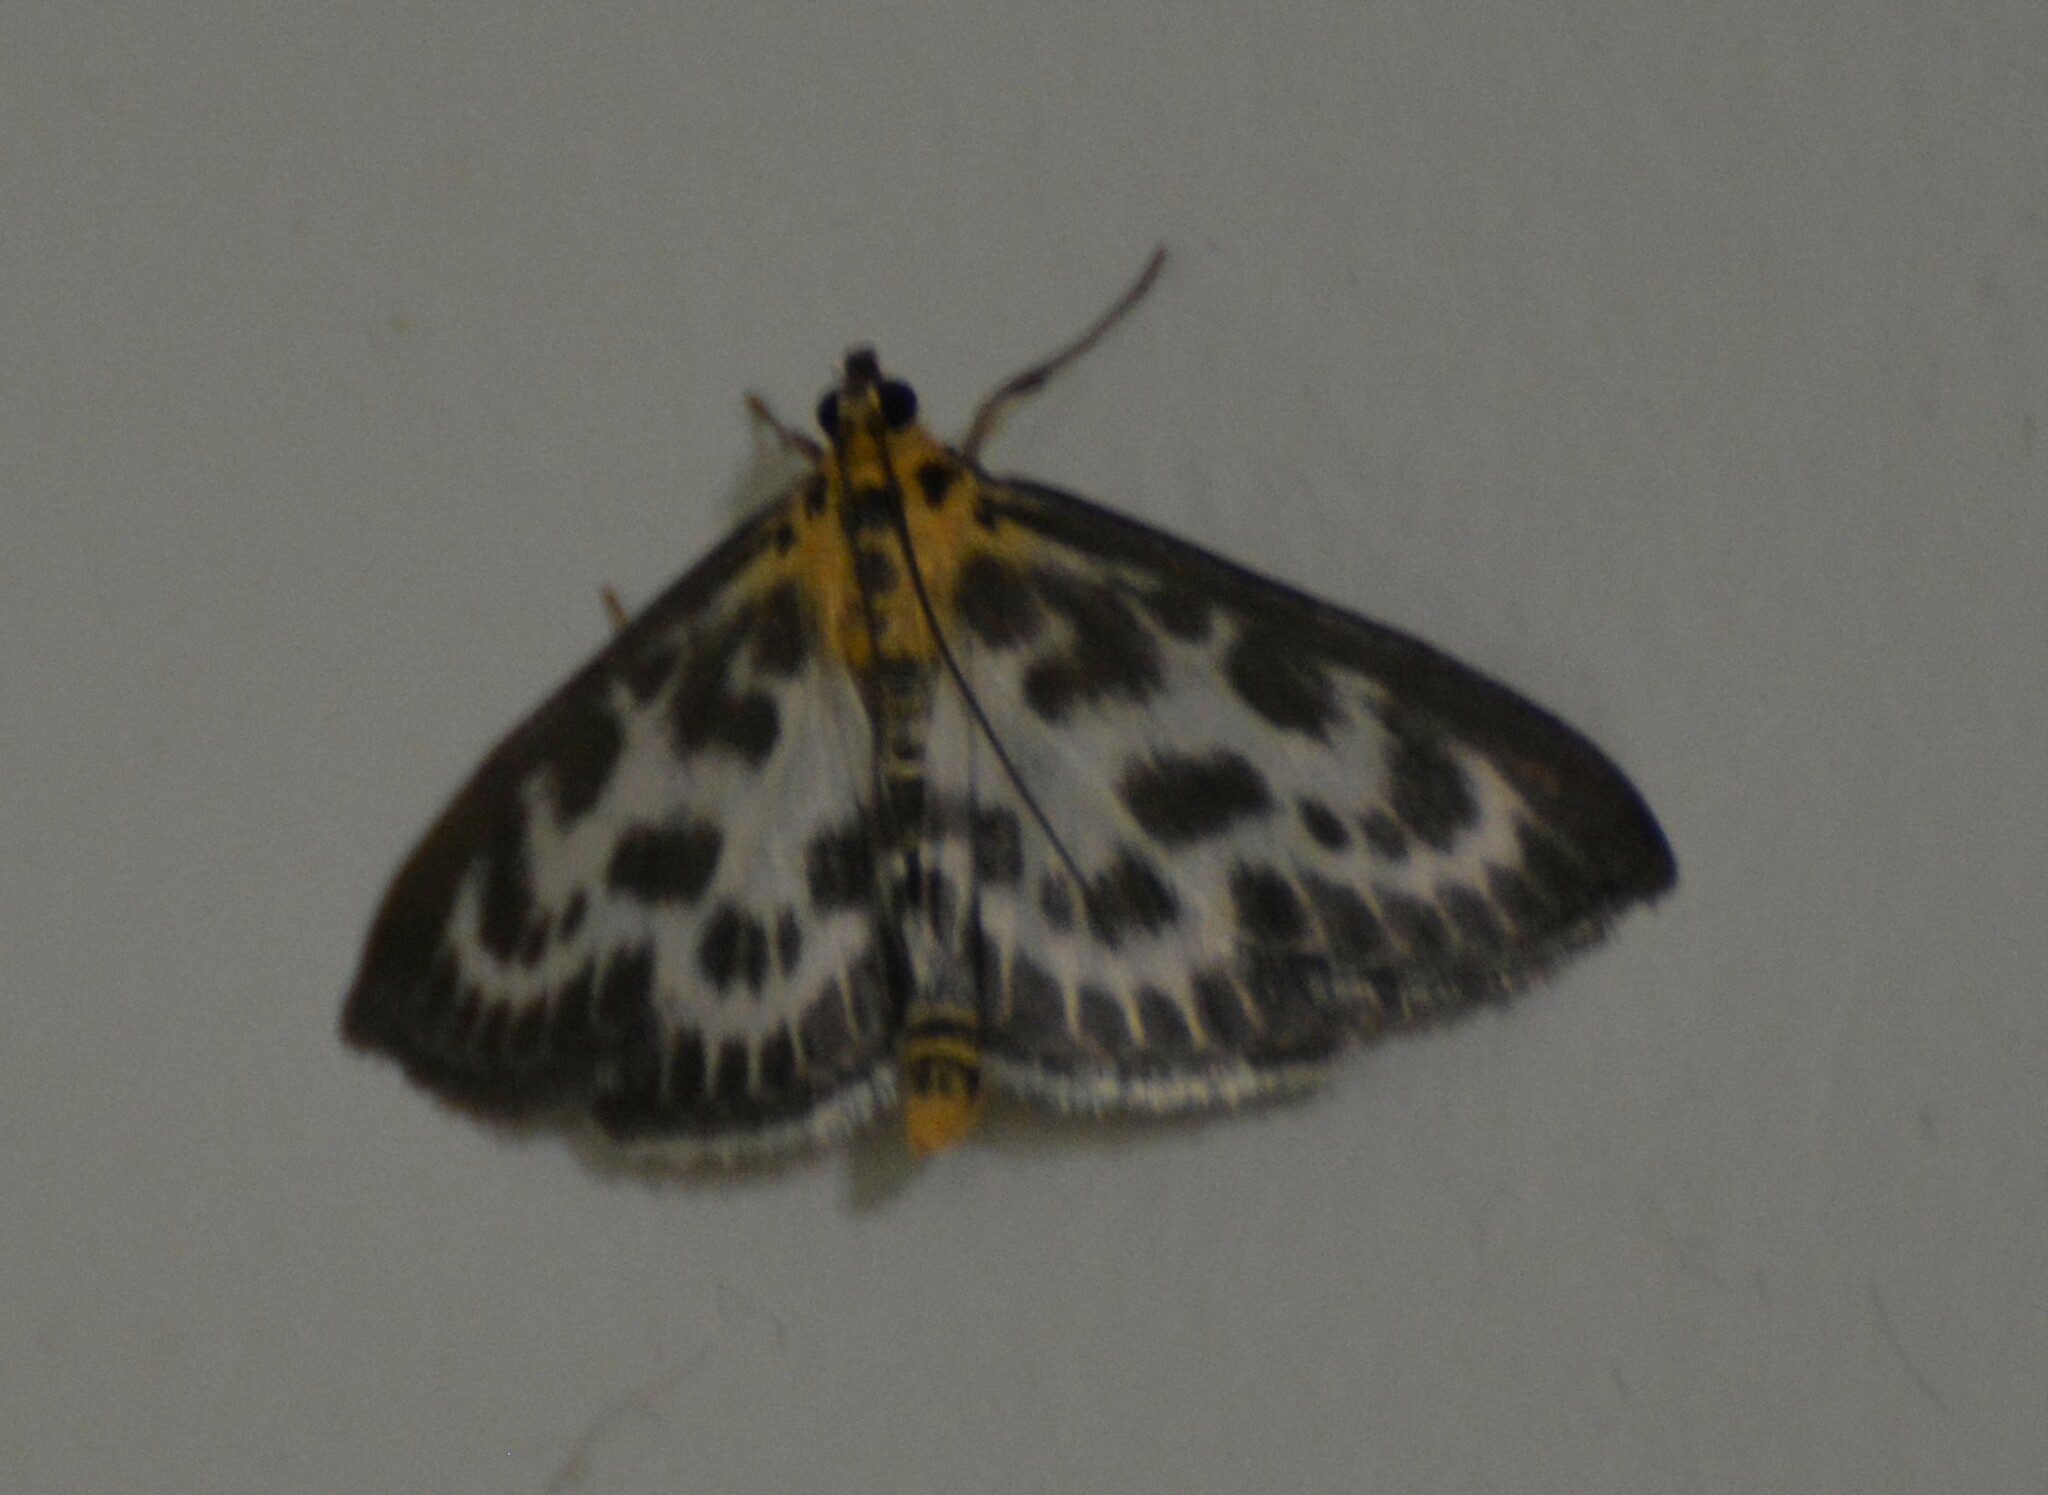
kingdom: Animalia
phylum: Arthropoda
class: Insecta
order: Lepidoptera
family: Crambidae
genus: Anania
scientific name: Anania hortulata
